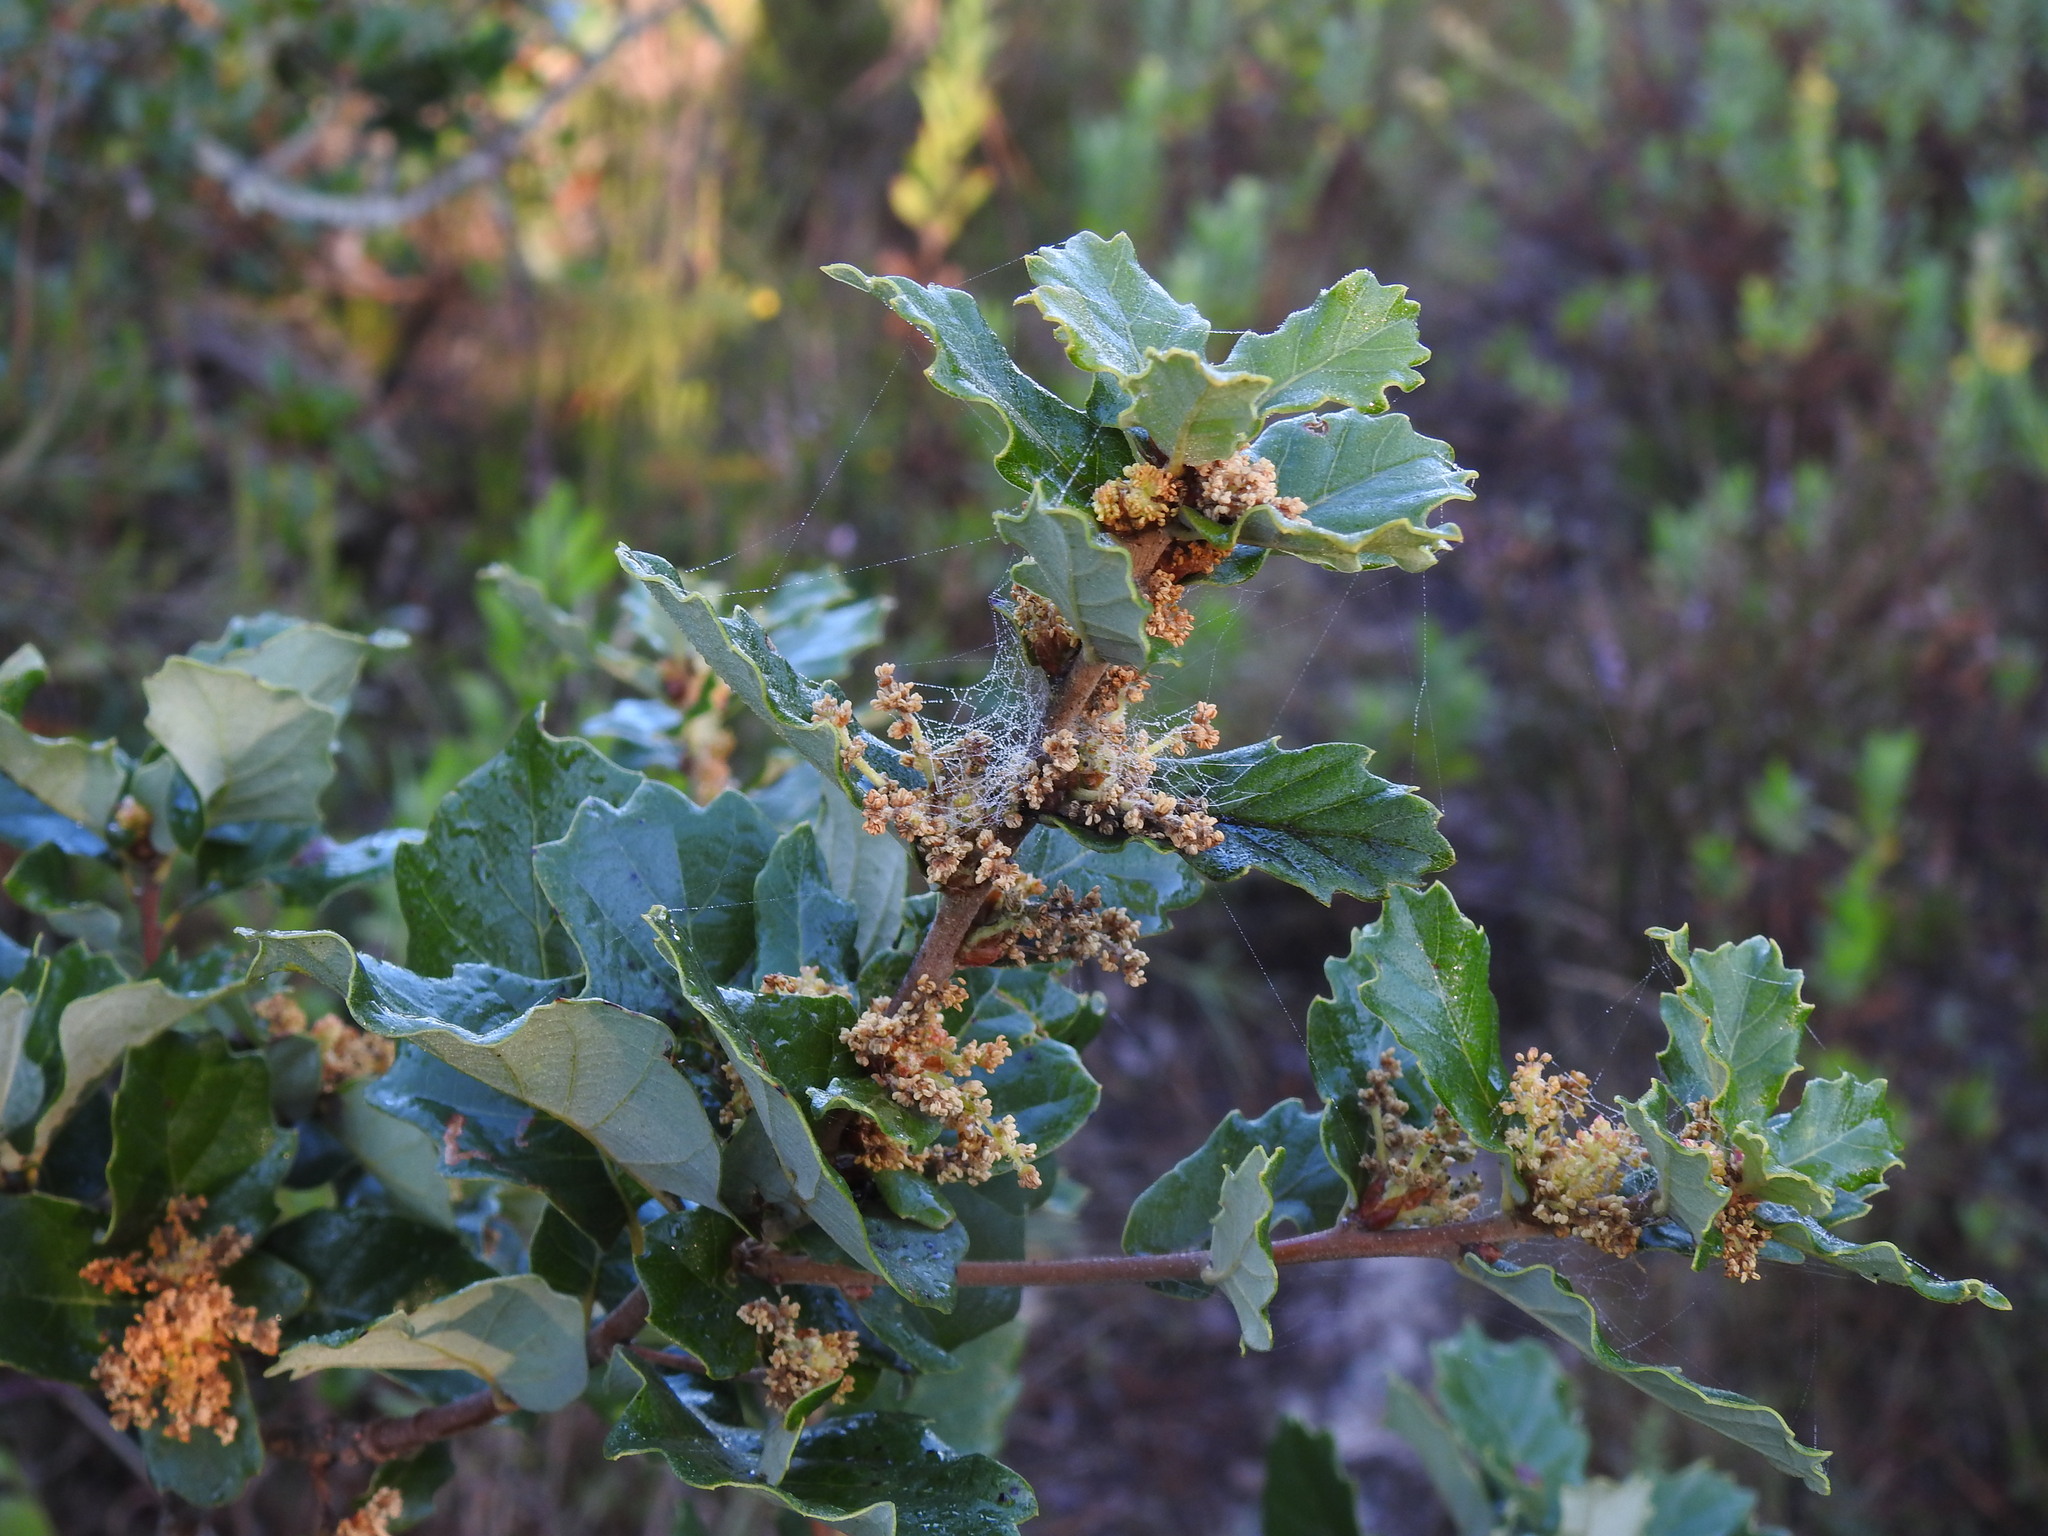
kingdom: Plantae
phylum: Tracheophyta
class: Magnoliopsida
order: Fagales
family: Fagaceae
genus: Quercus
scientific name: Quercus lusitanica
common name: Scrub gall oak
